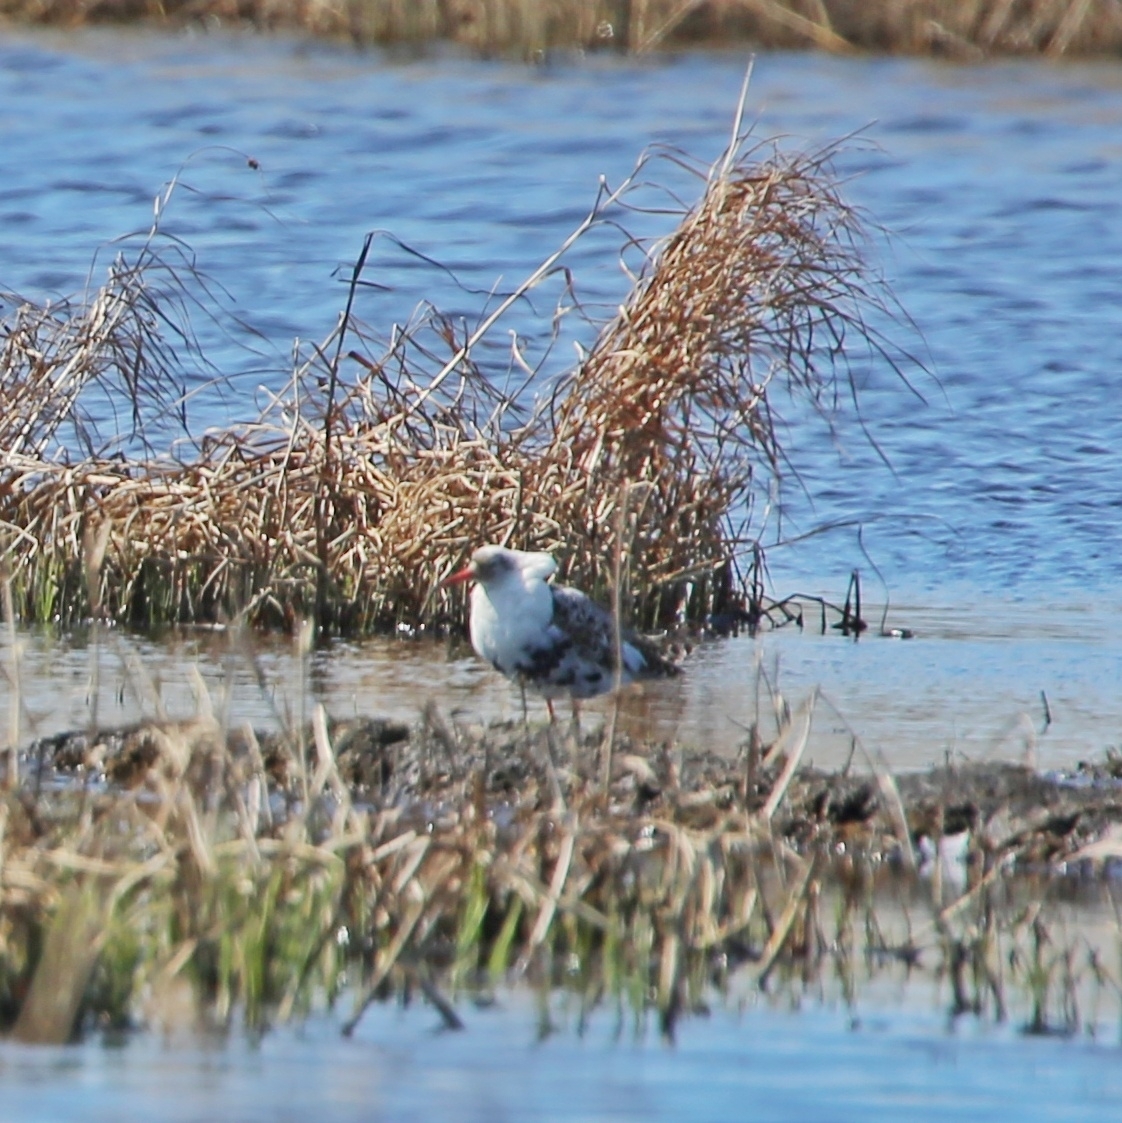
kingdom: Animalia
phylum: Chordata
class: Aves
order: Charadriiformes
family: Scolopacidae
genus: Calidris
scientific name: Calidris pugnax
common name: Ruff
